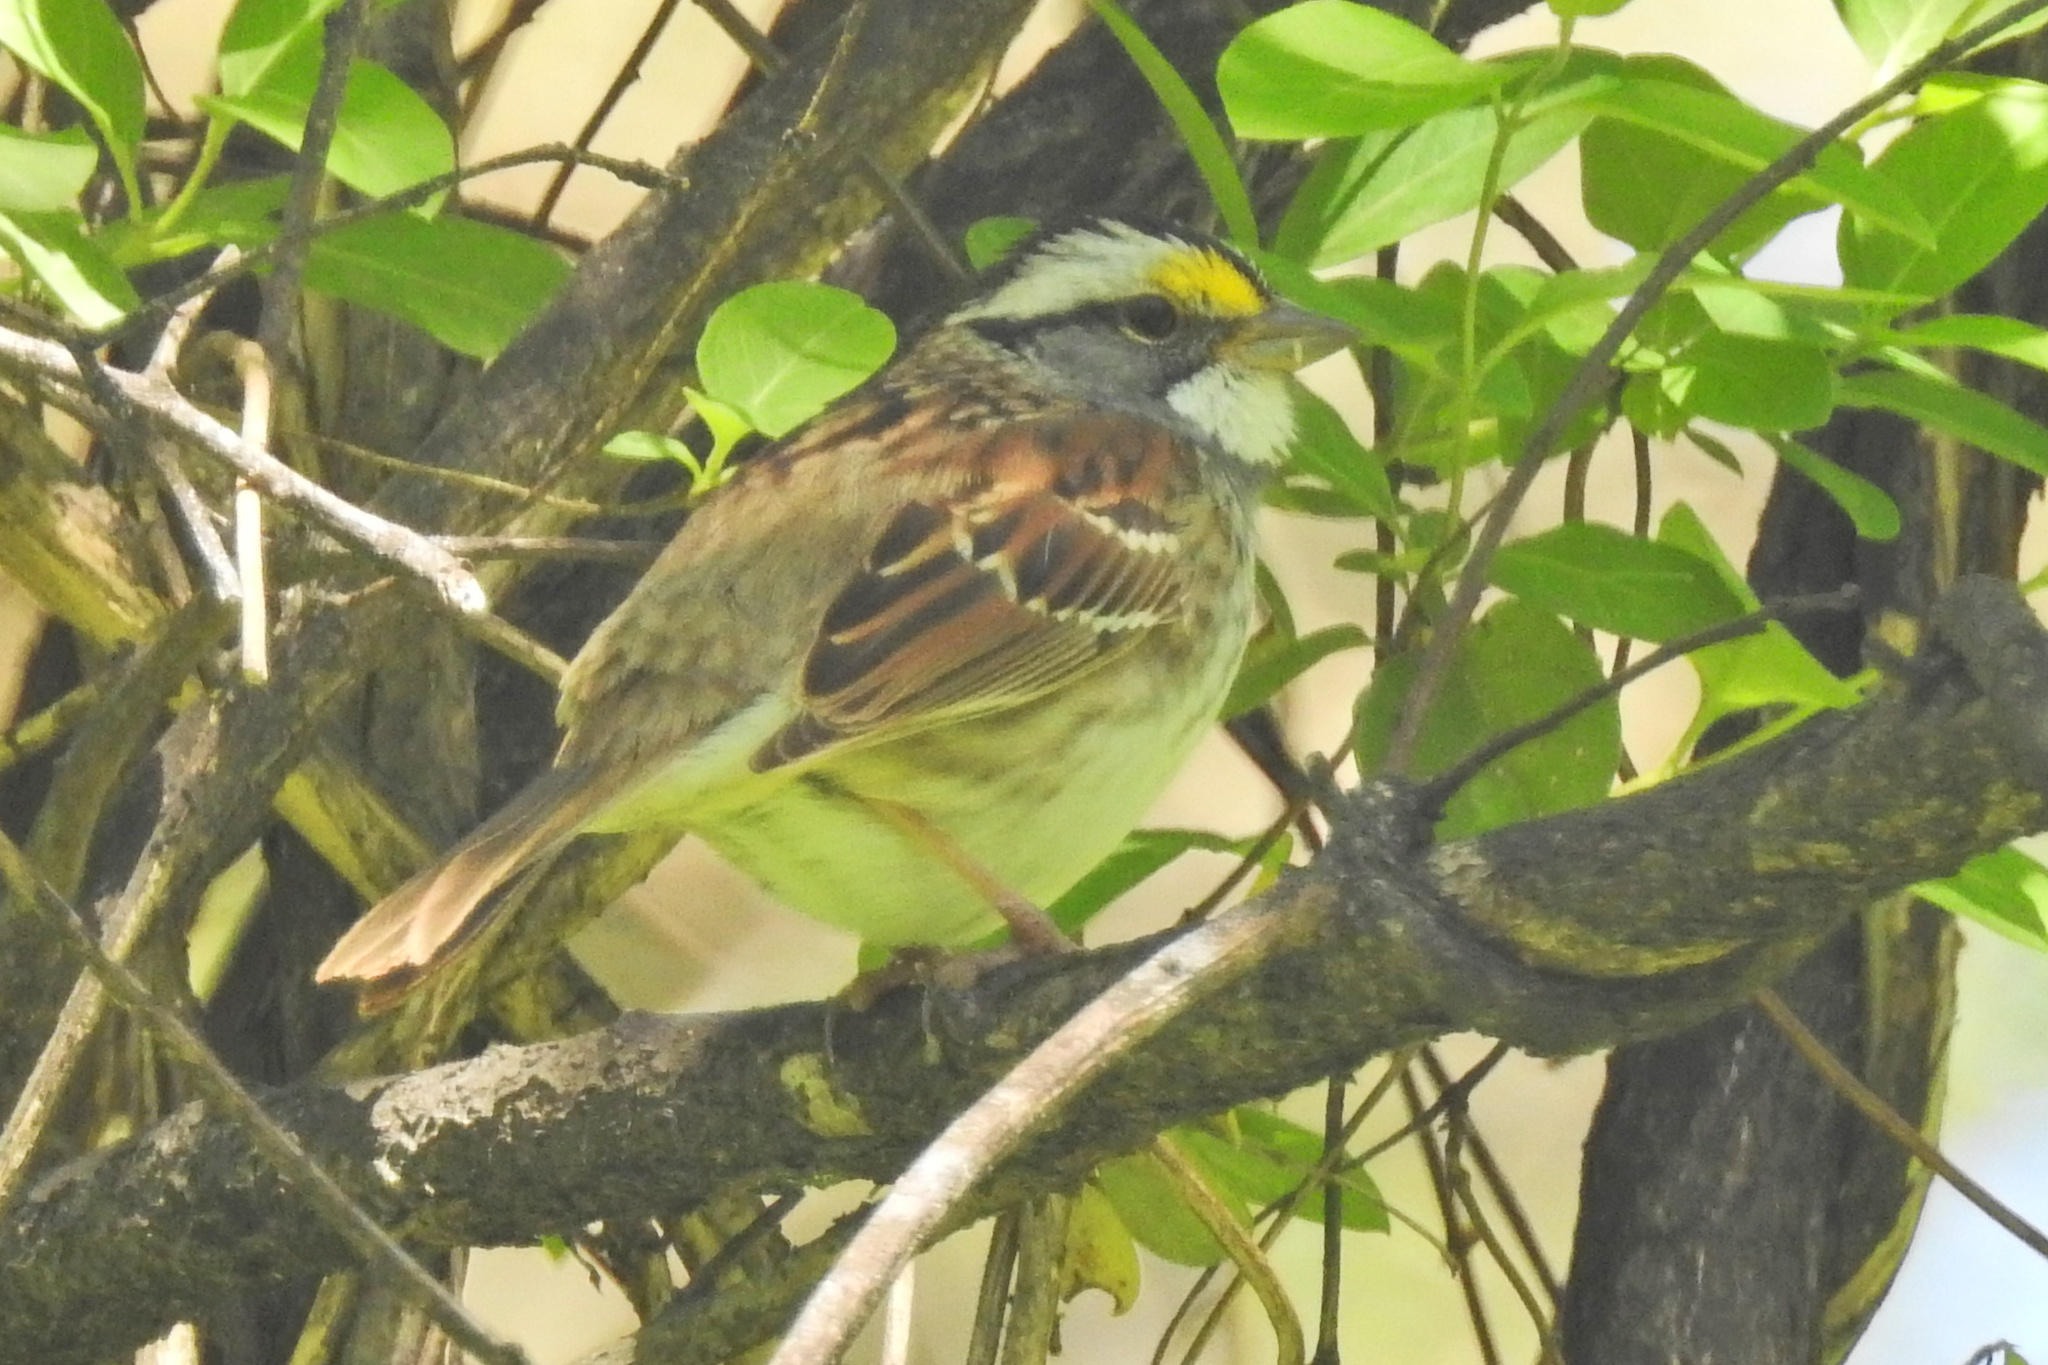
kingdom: Animalia
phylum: Chordata
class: Aves
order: Passeriformes
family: Passerellidae
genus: Zonotrichia
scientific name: Zonotrichia albicollis
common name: White-throated sparrow
